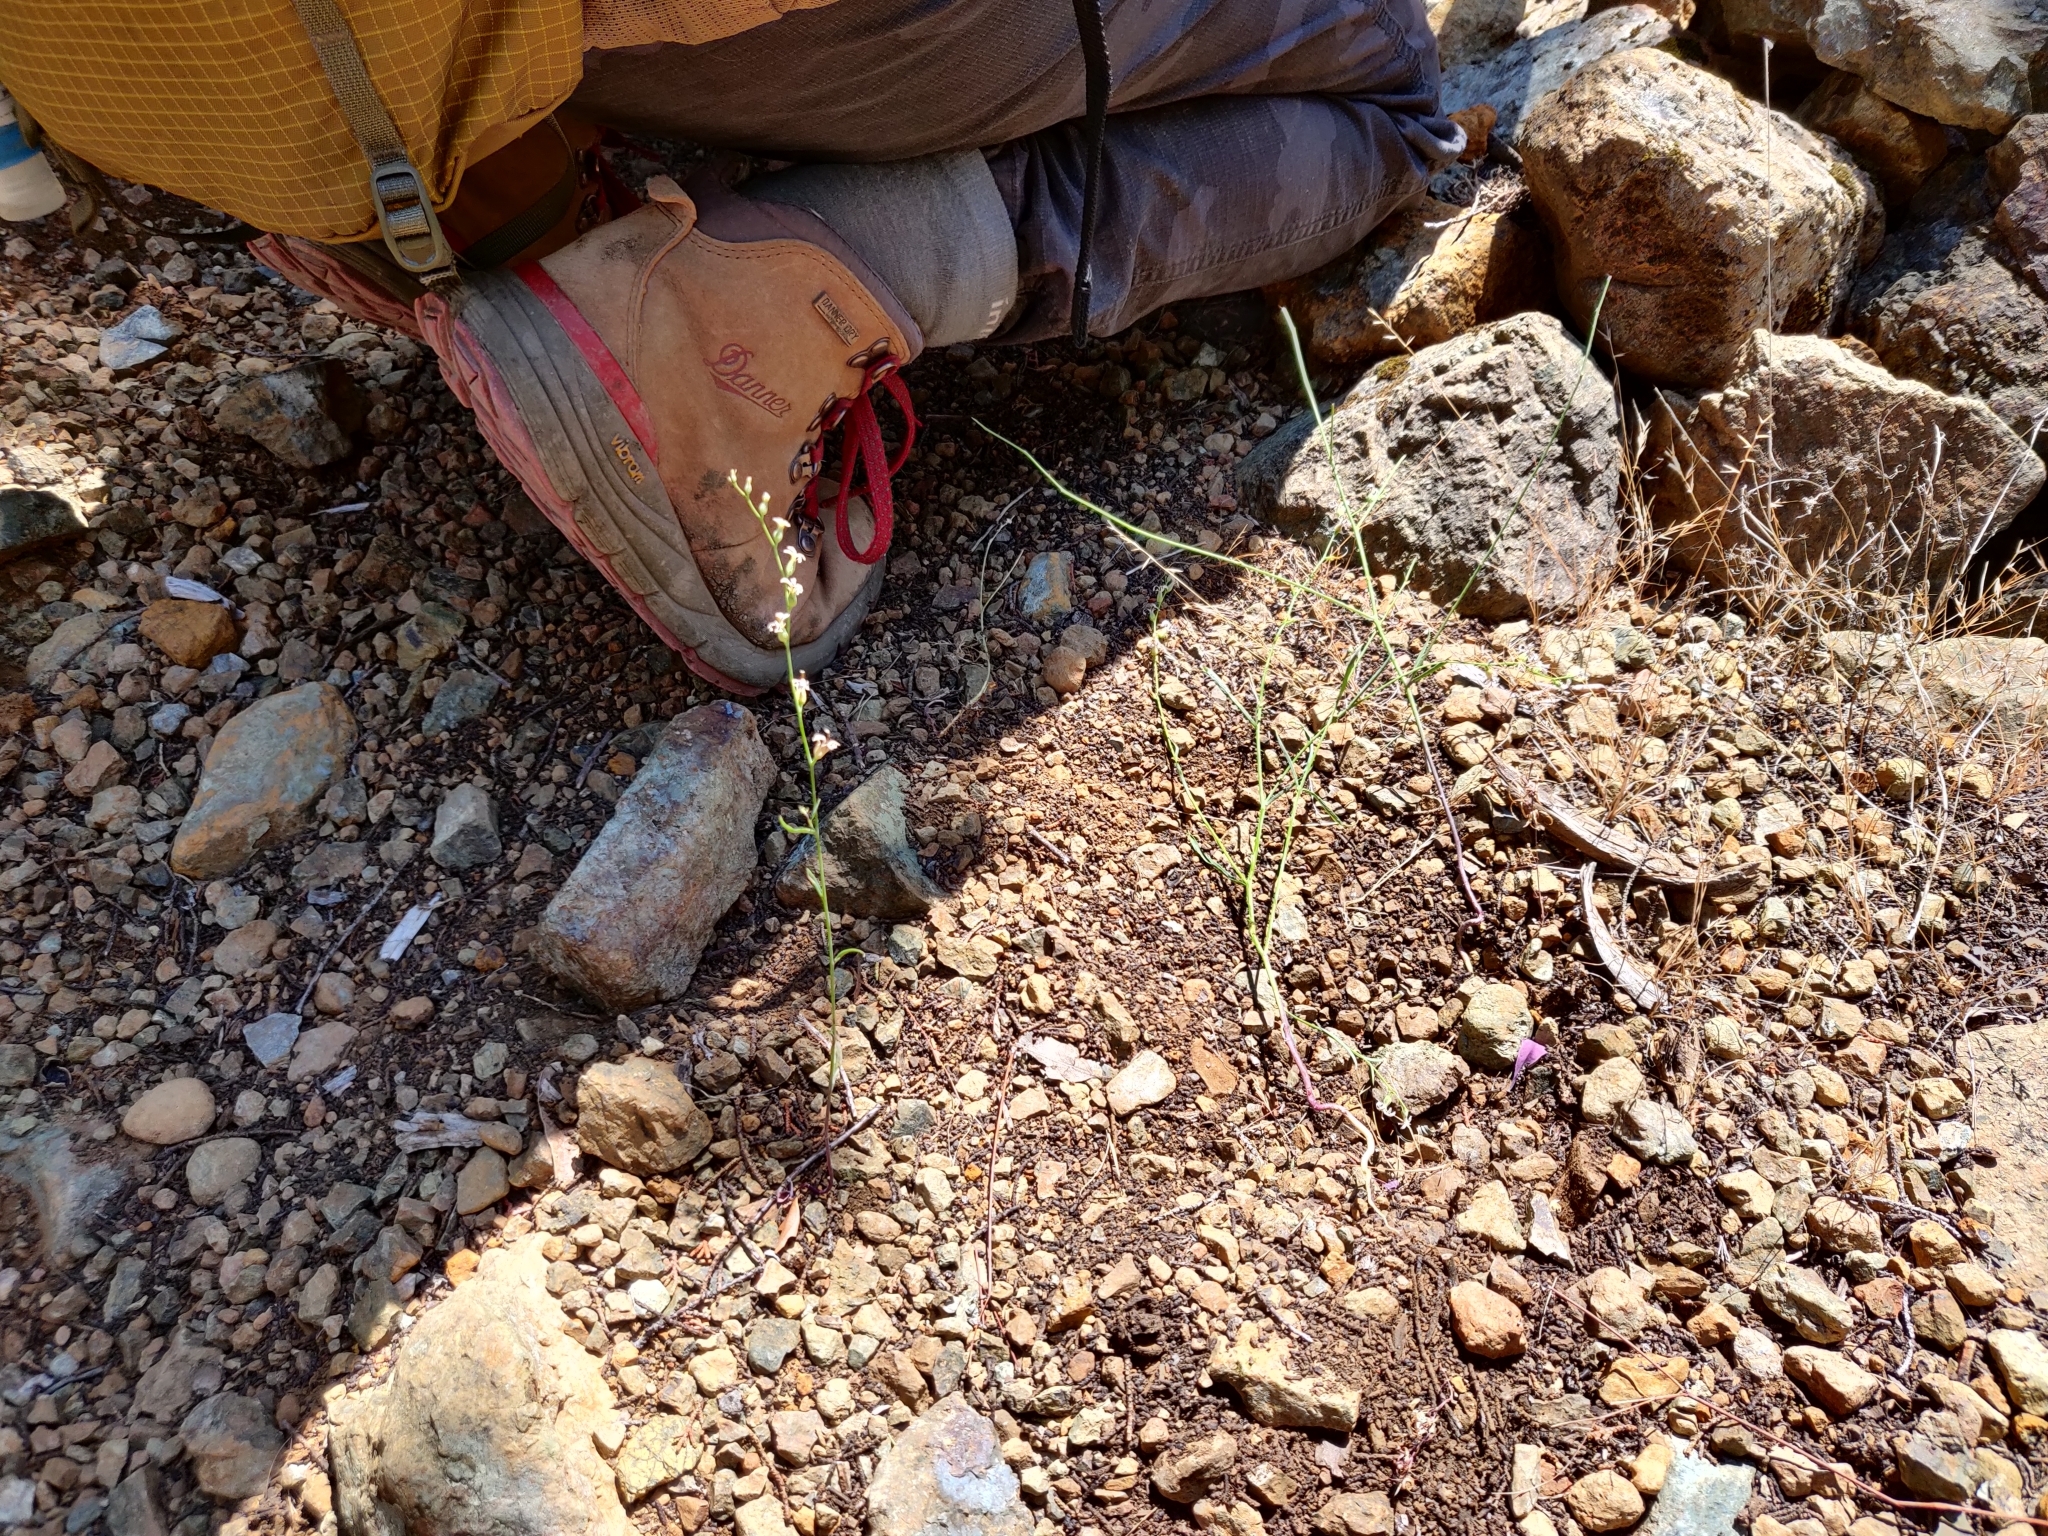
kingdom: Plantae
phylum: Tracheophyta
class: Magnoliopsida
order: Brassicales
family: Brassicaceae
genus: Streptanthus
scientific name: Streptanthus barbiger
